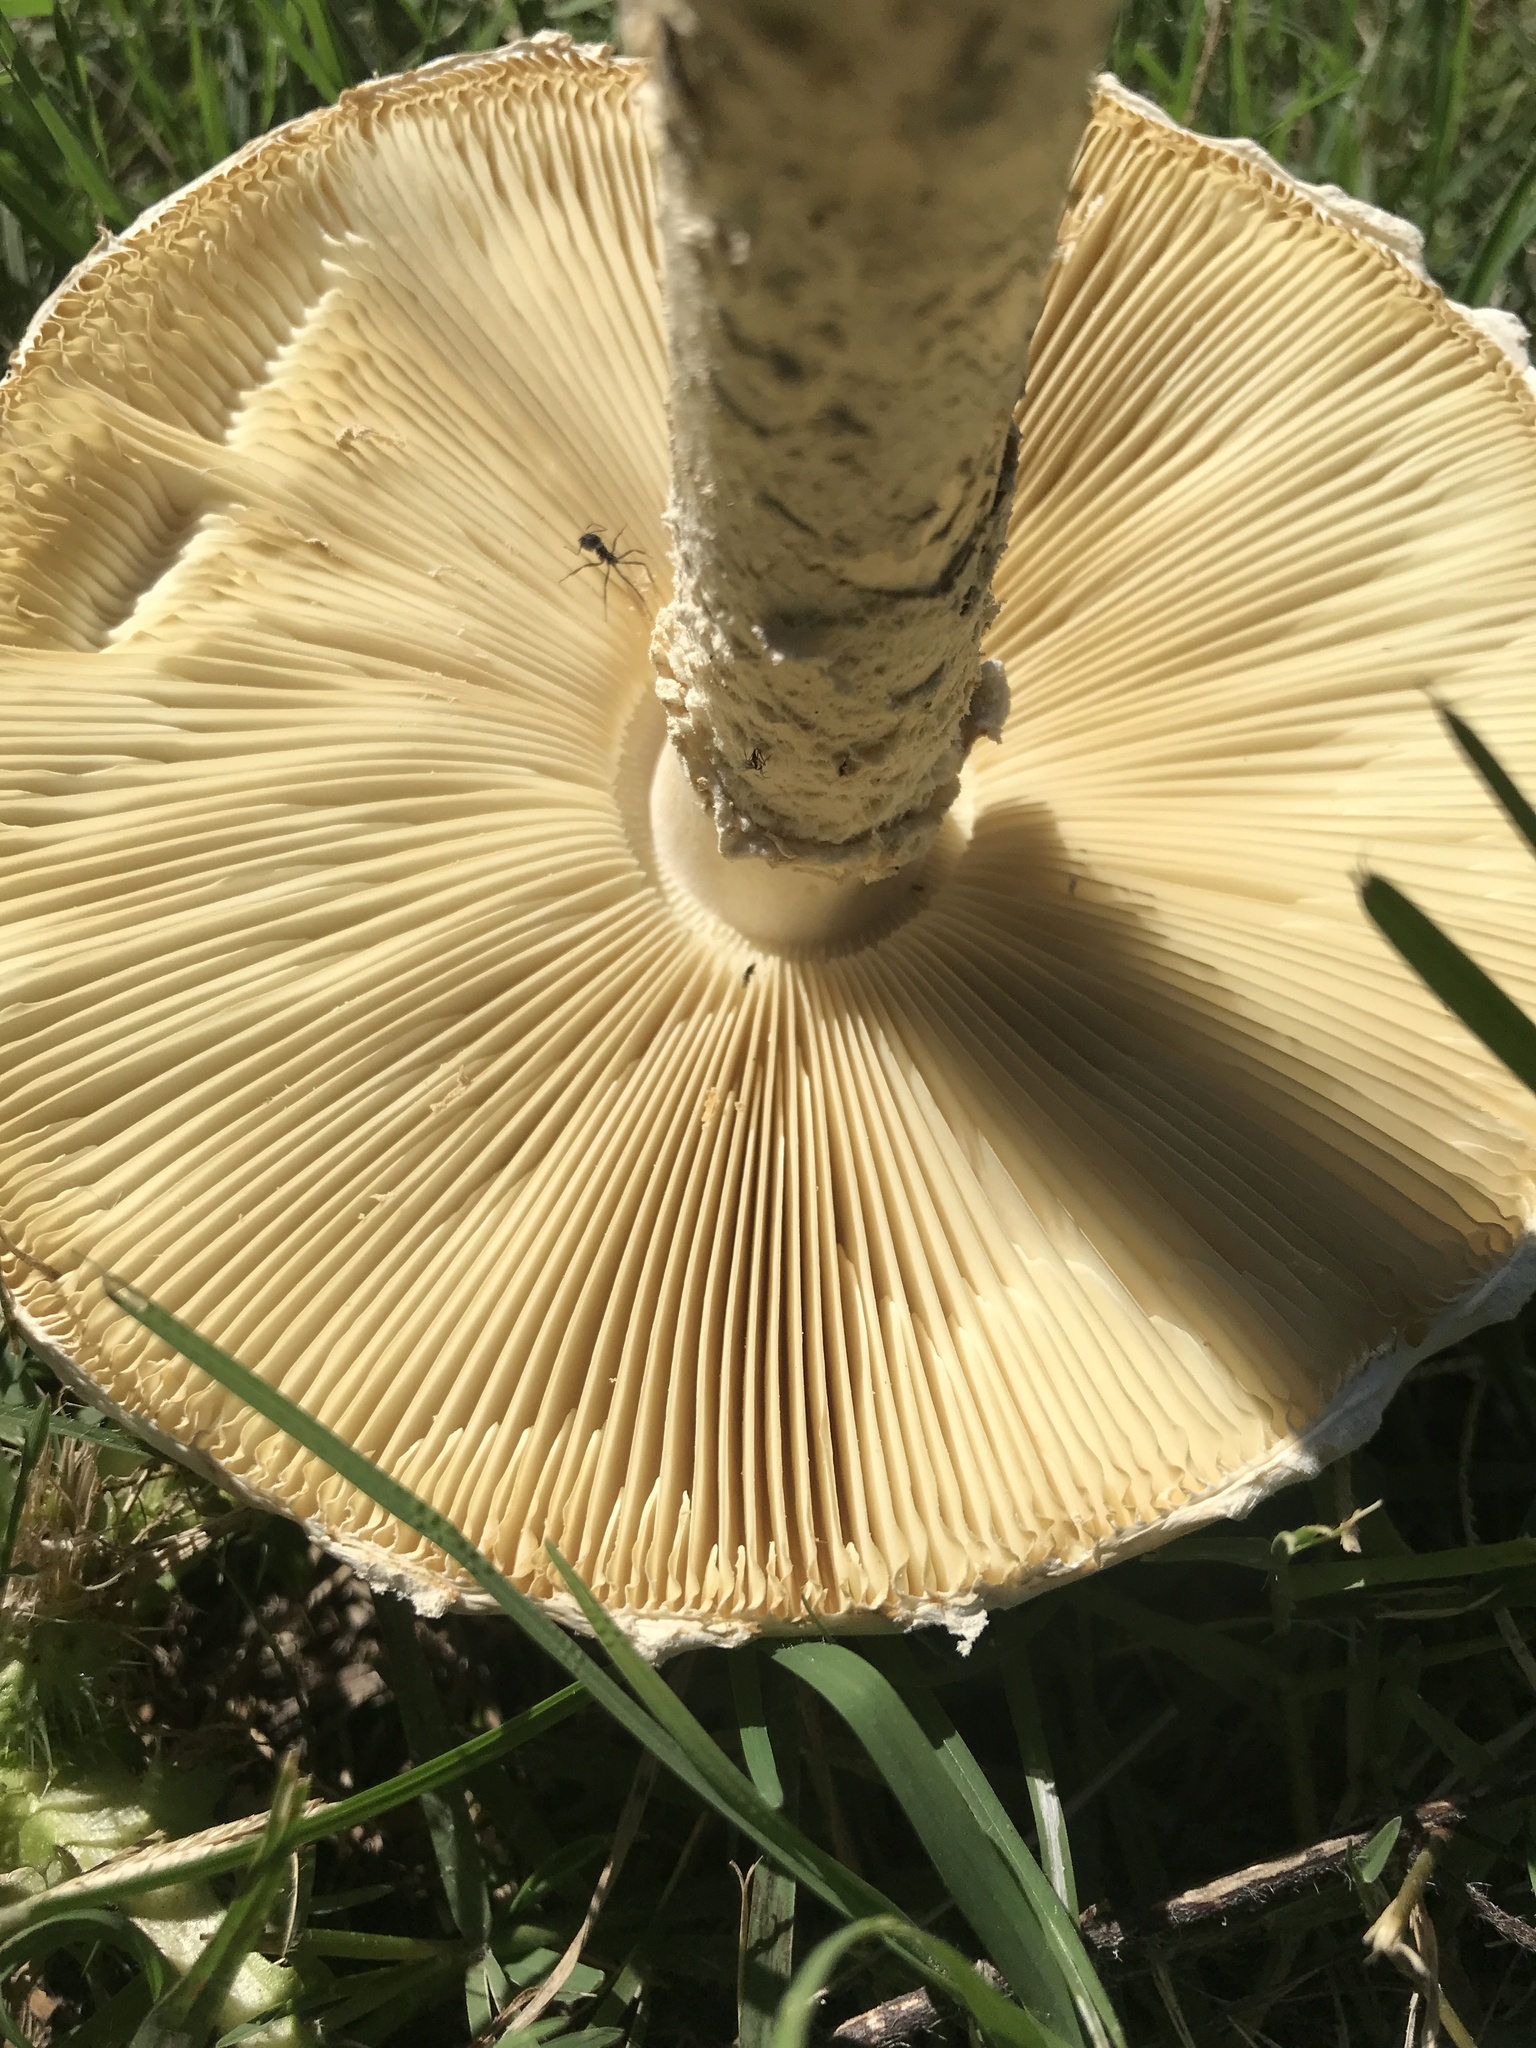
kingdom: Fungi
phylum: Basidiomycota
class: Agaricomycetes
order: Agaricales
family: Amanitaceae
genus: Aspidella
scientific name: Aspidella foetens
